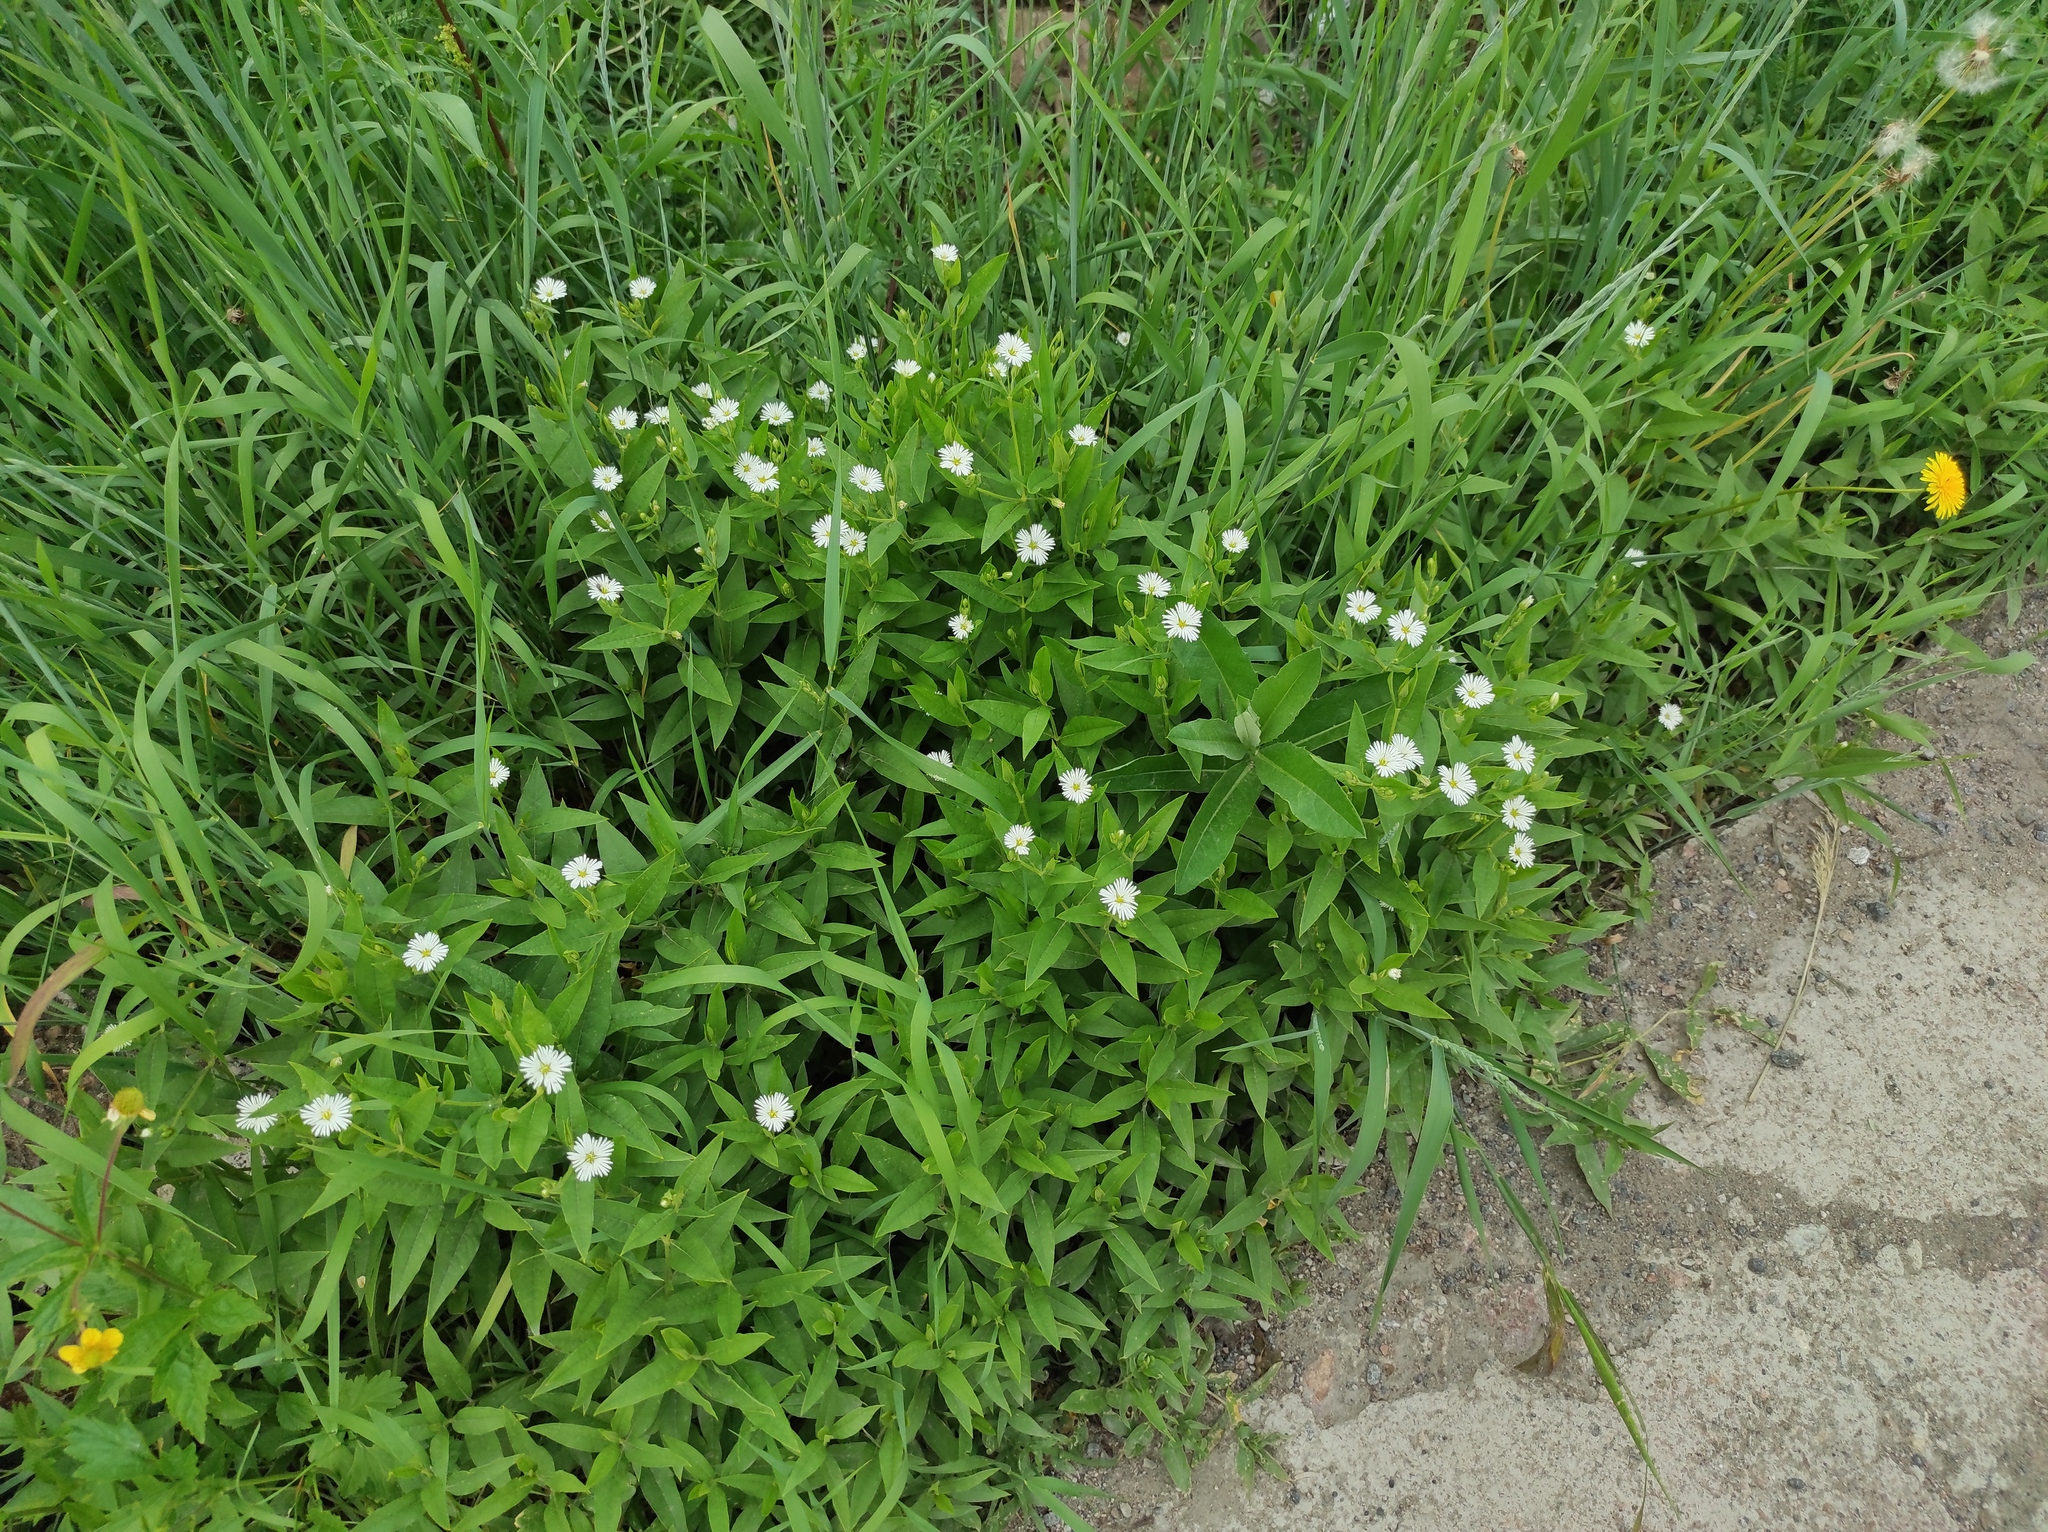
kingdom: Plantae
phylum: Tracheophyta
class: Magnoliopsida
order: Caryophyllales
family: Caryophyllaceae
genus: Stellaria
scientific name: Stellaria radians
